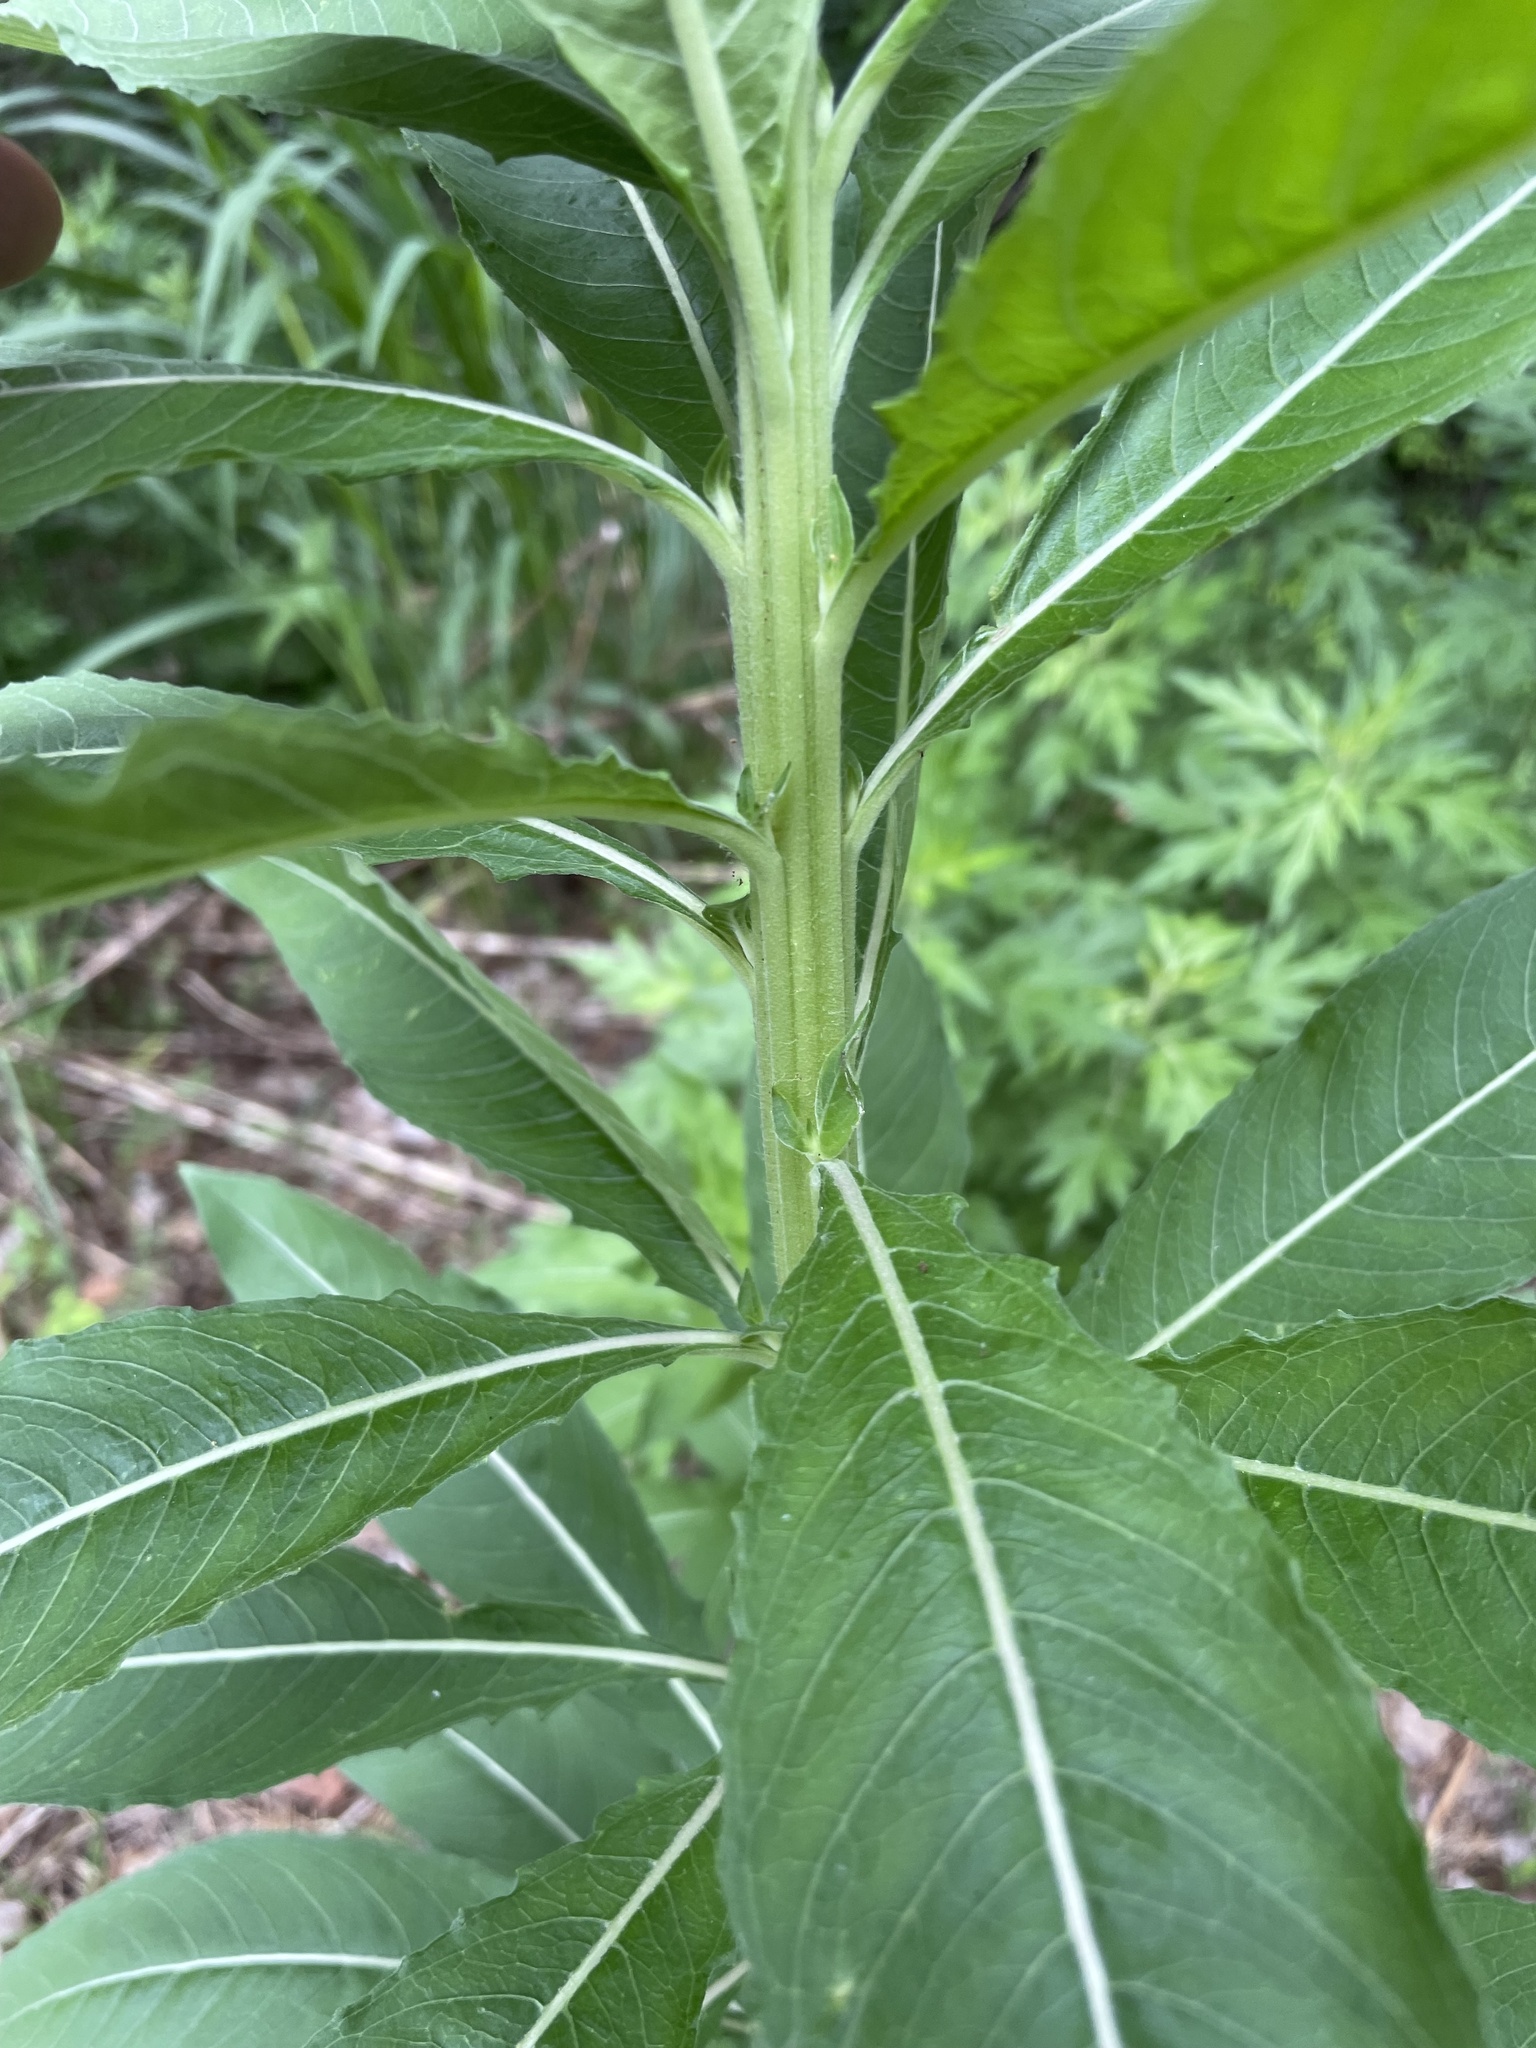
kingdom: Plantae
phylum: Tracheophyta
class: Magnoliopsida
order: Myrtales
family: Onagraceae
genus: Oenothera
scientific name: Oenothera biennis
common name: Common evening-primrose
